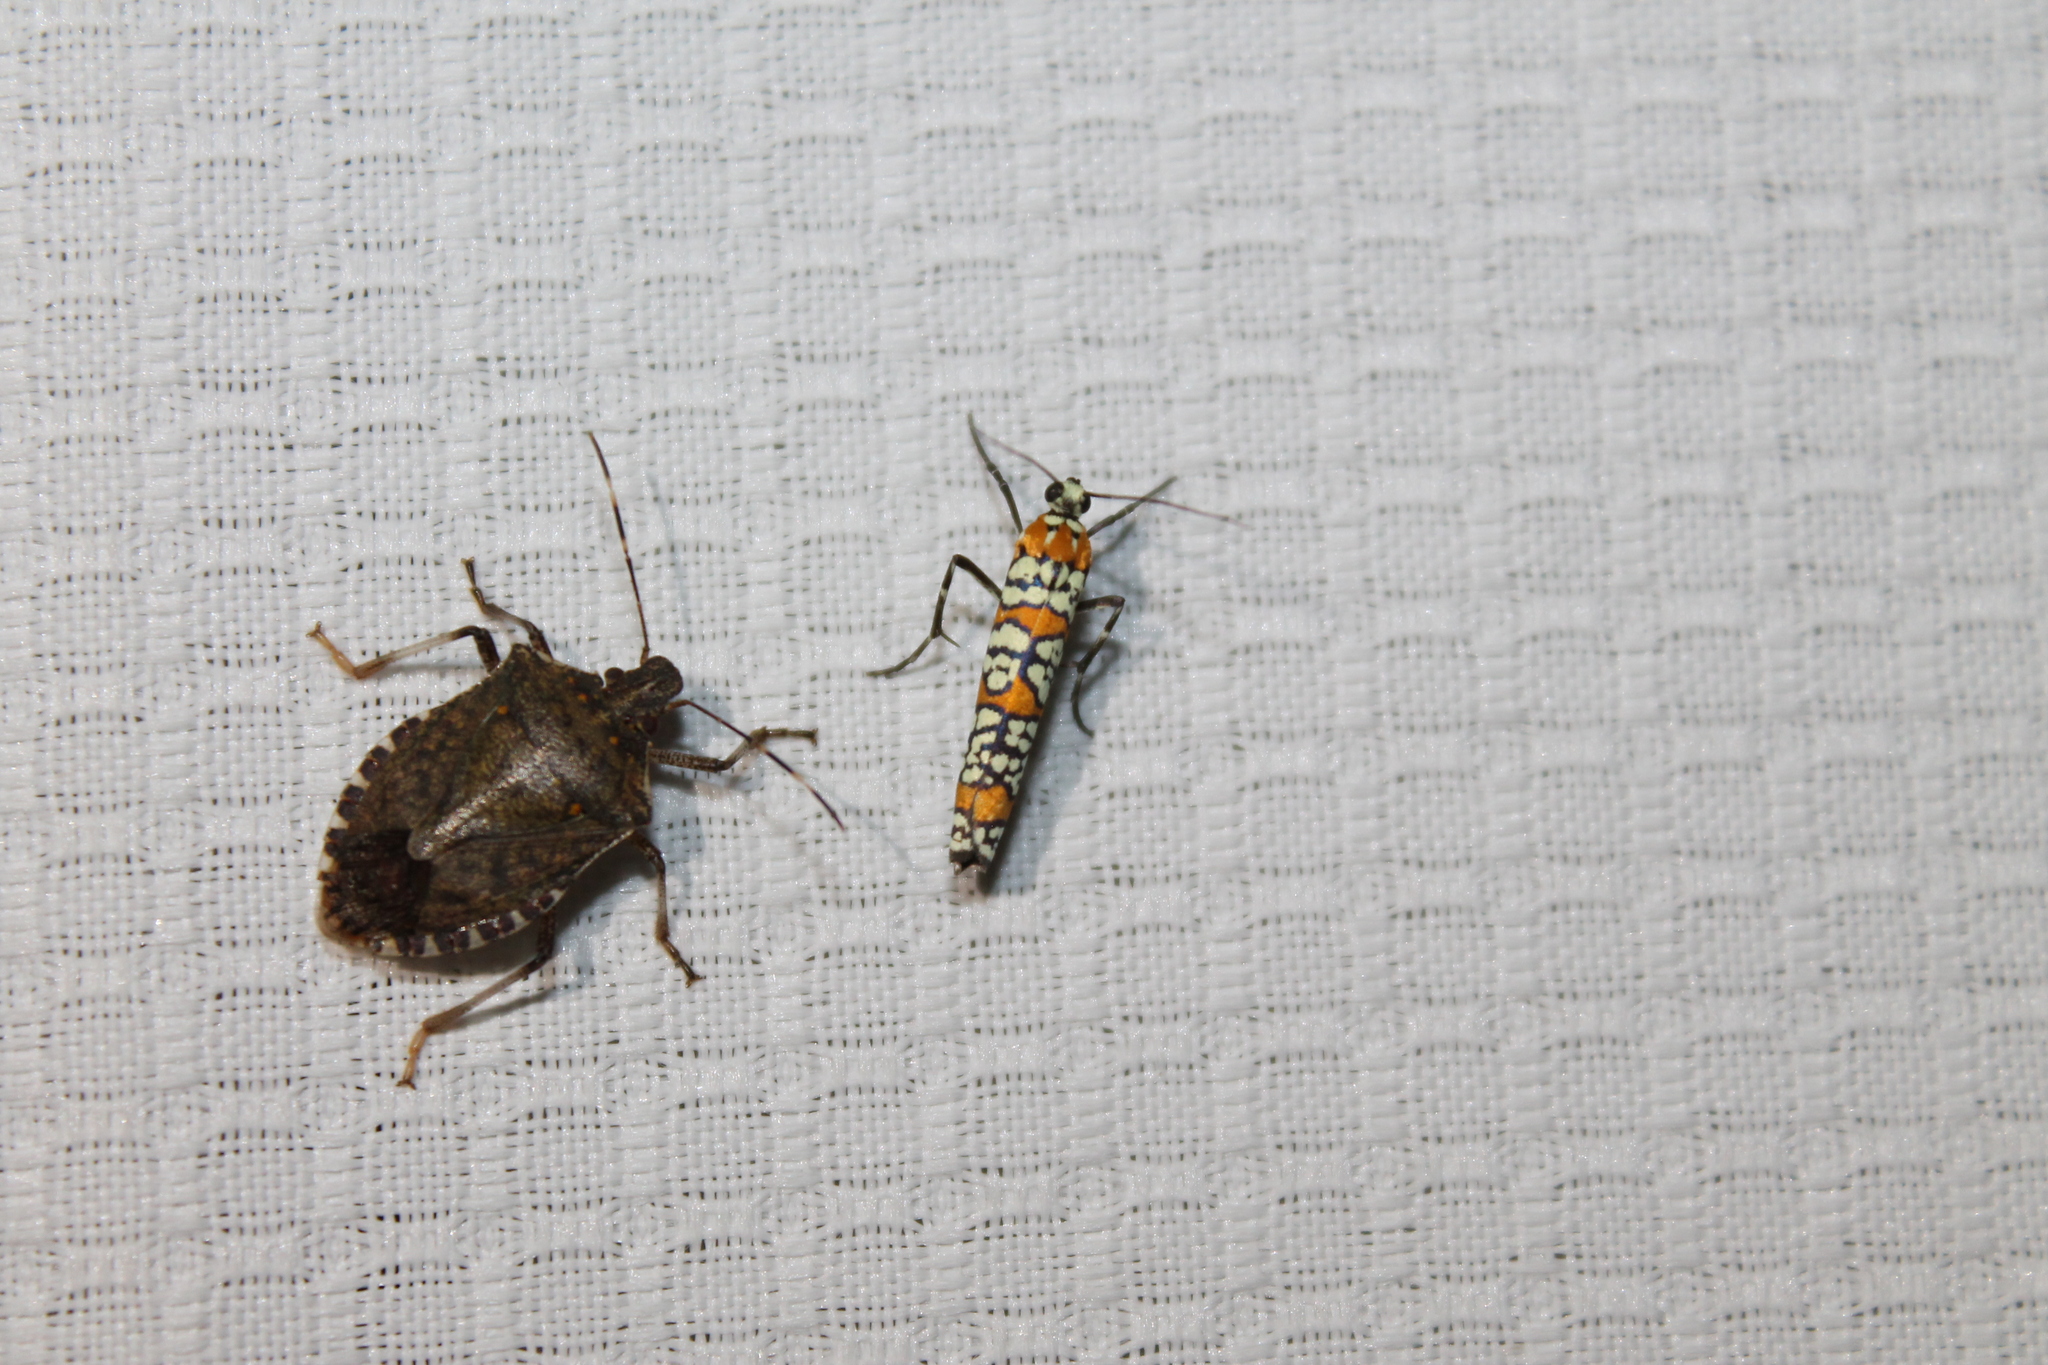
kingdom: Animalia
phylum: Arthropoda
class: Insecta
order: Hemiptera
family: Pentatomidae
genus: Halyomorpha
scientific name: Halyomorpha halys
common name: Brown marmorated stink bug
